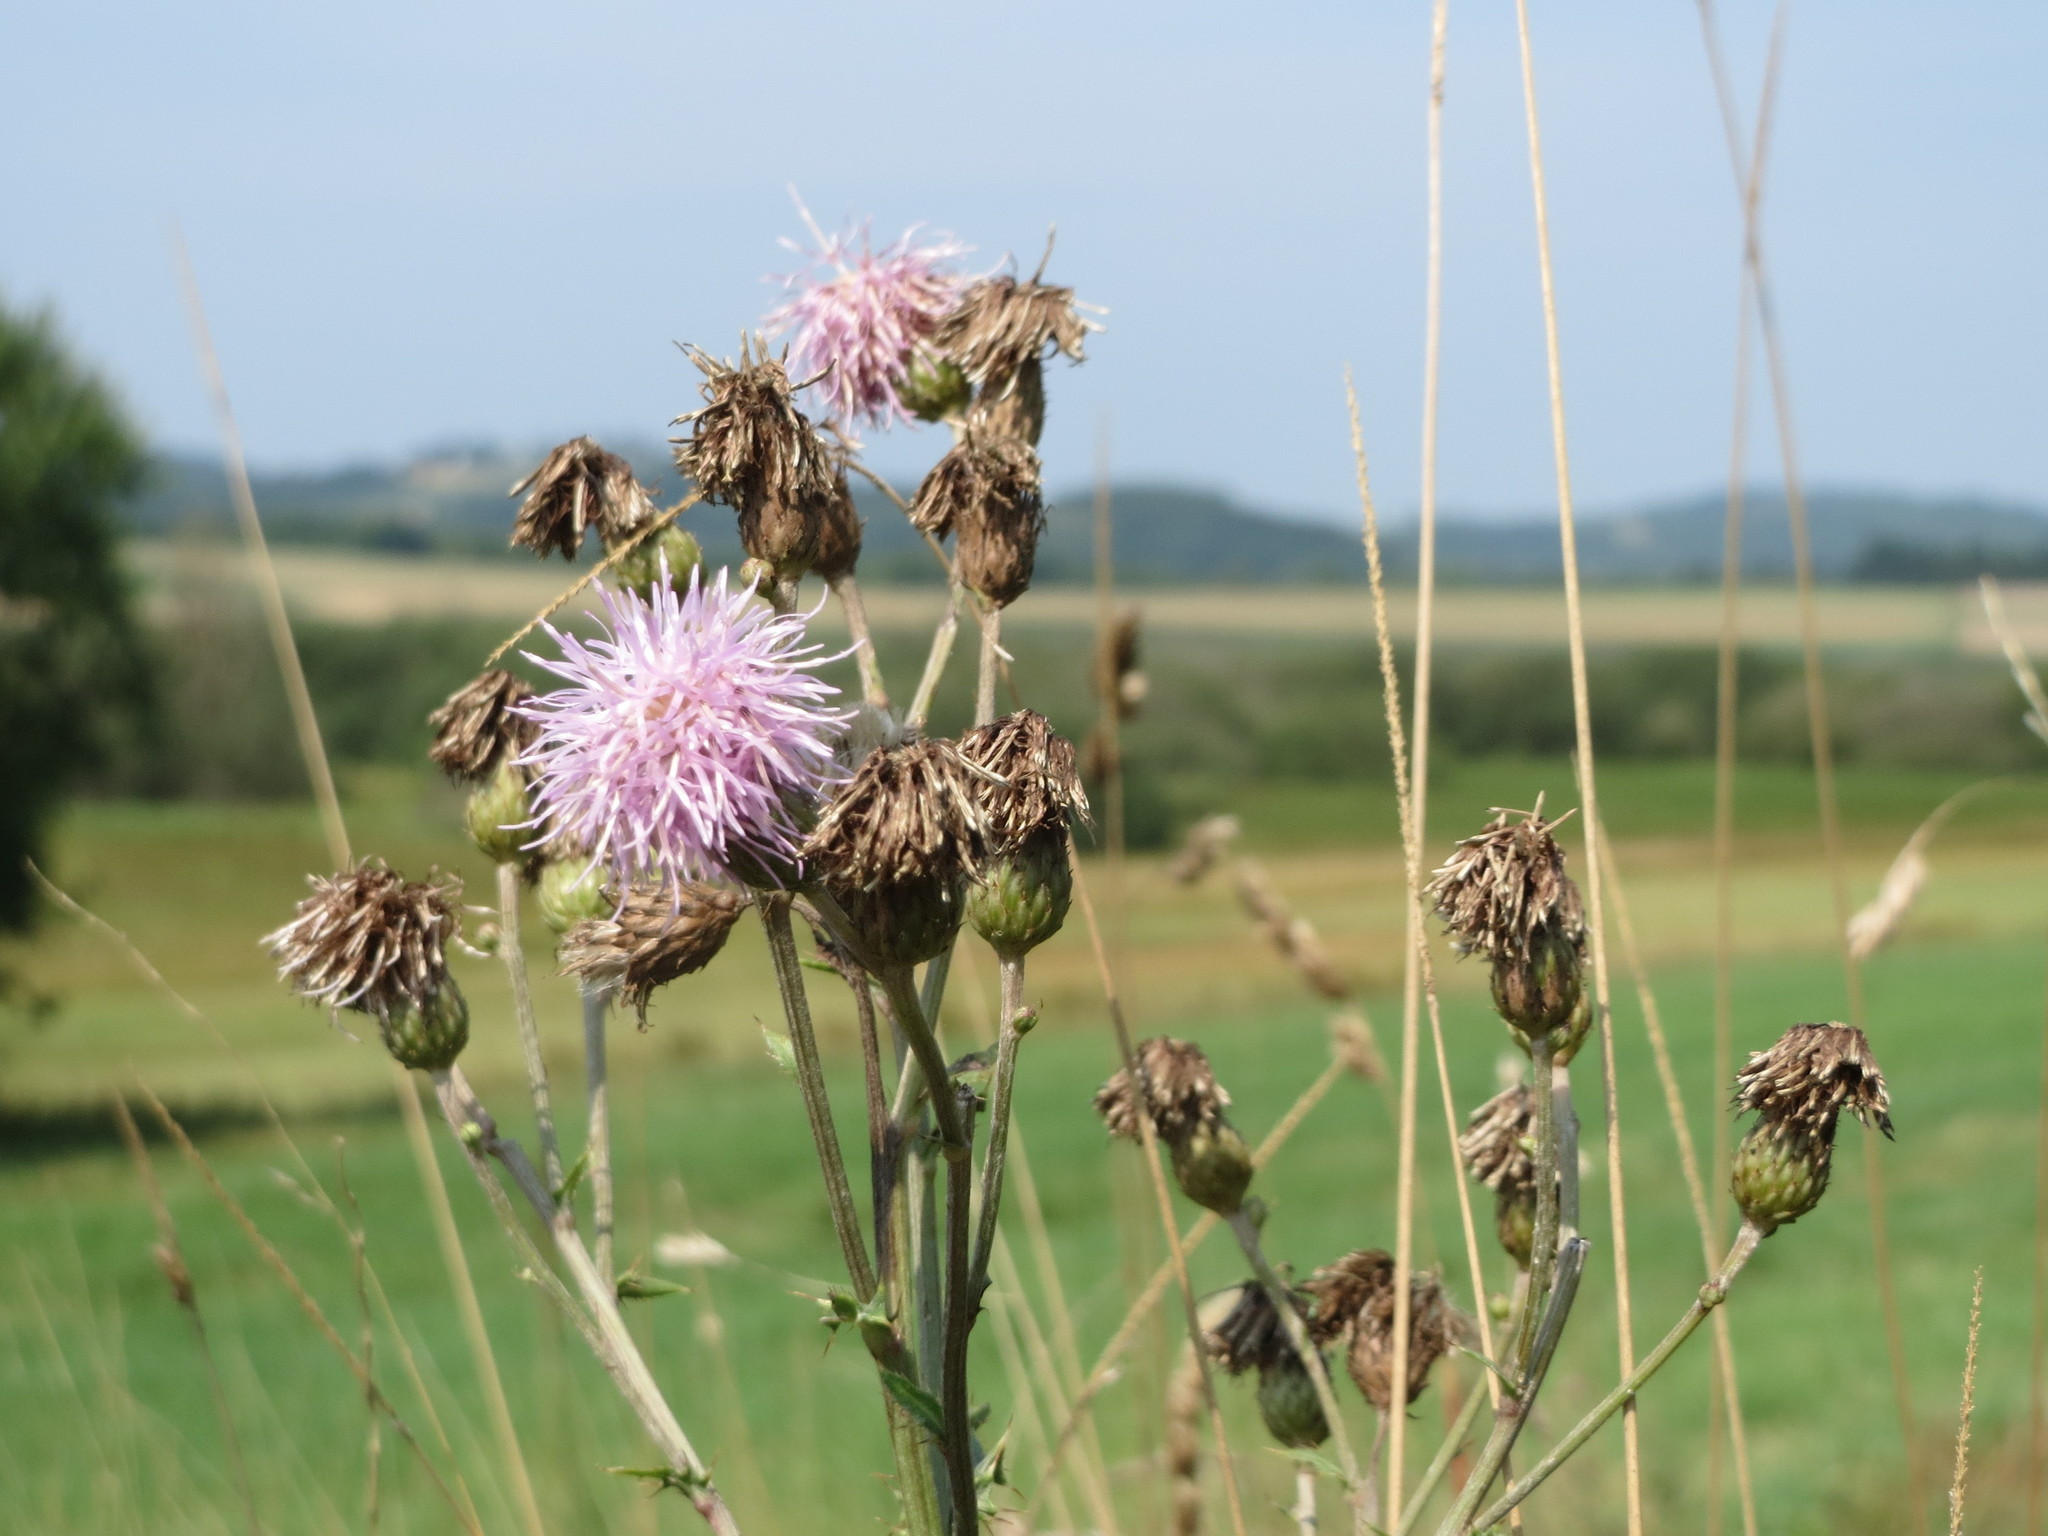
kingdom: Plantae
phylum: Tracheophyta
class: Magnoliopsida
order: Asterales
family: Asteraceae
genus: Cirsium
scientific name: Cirsium arvense
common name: Creeping thistle
